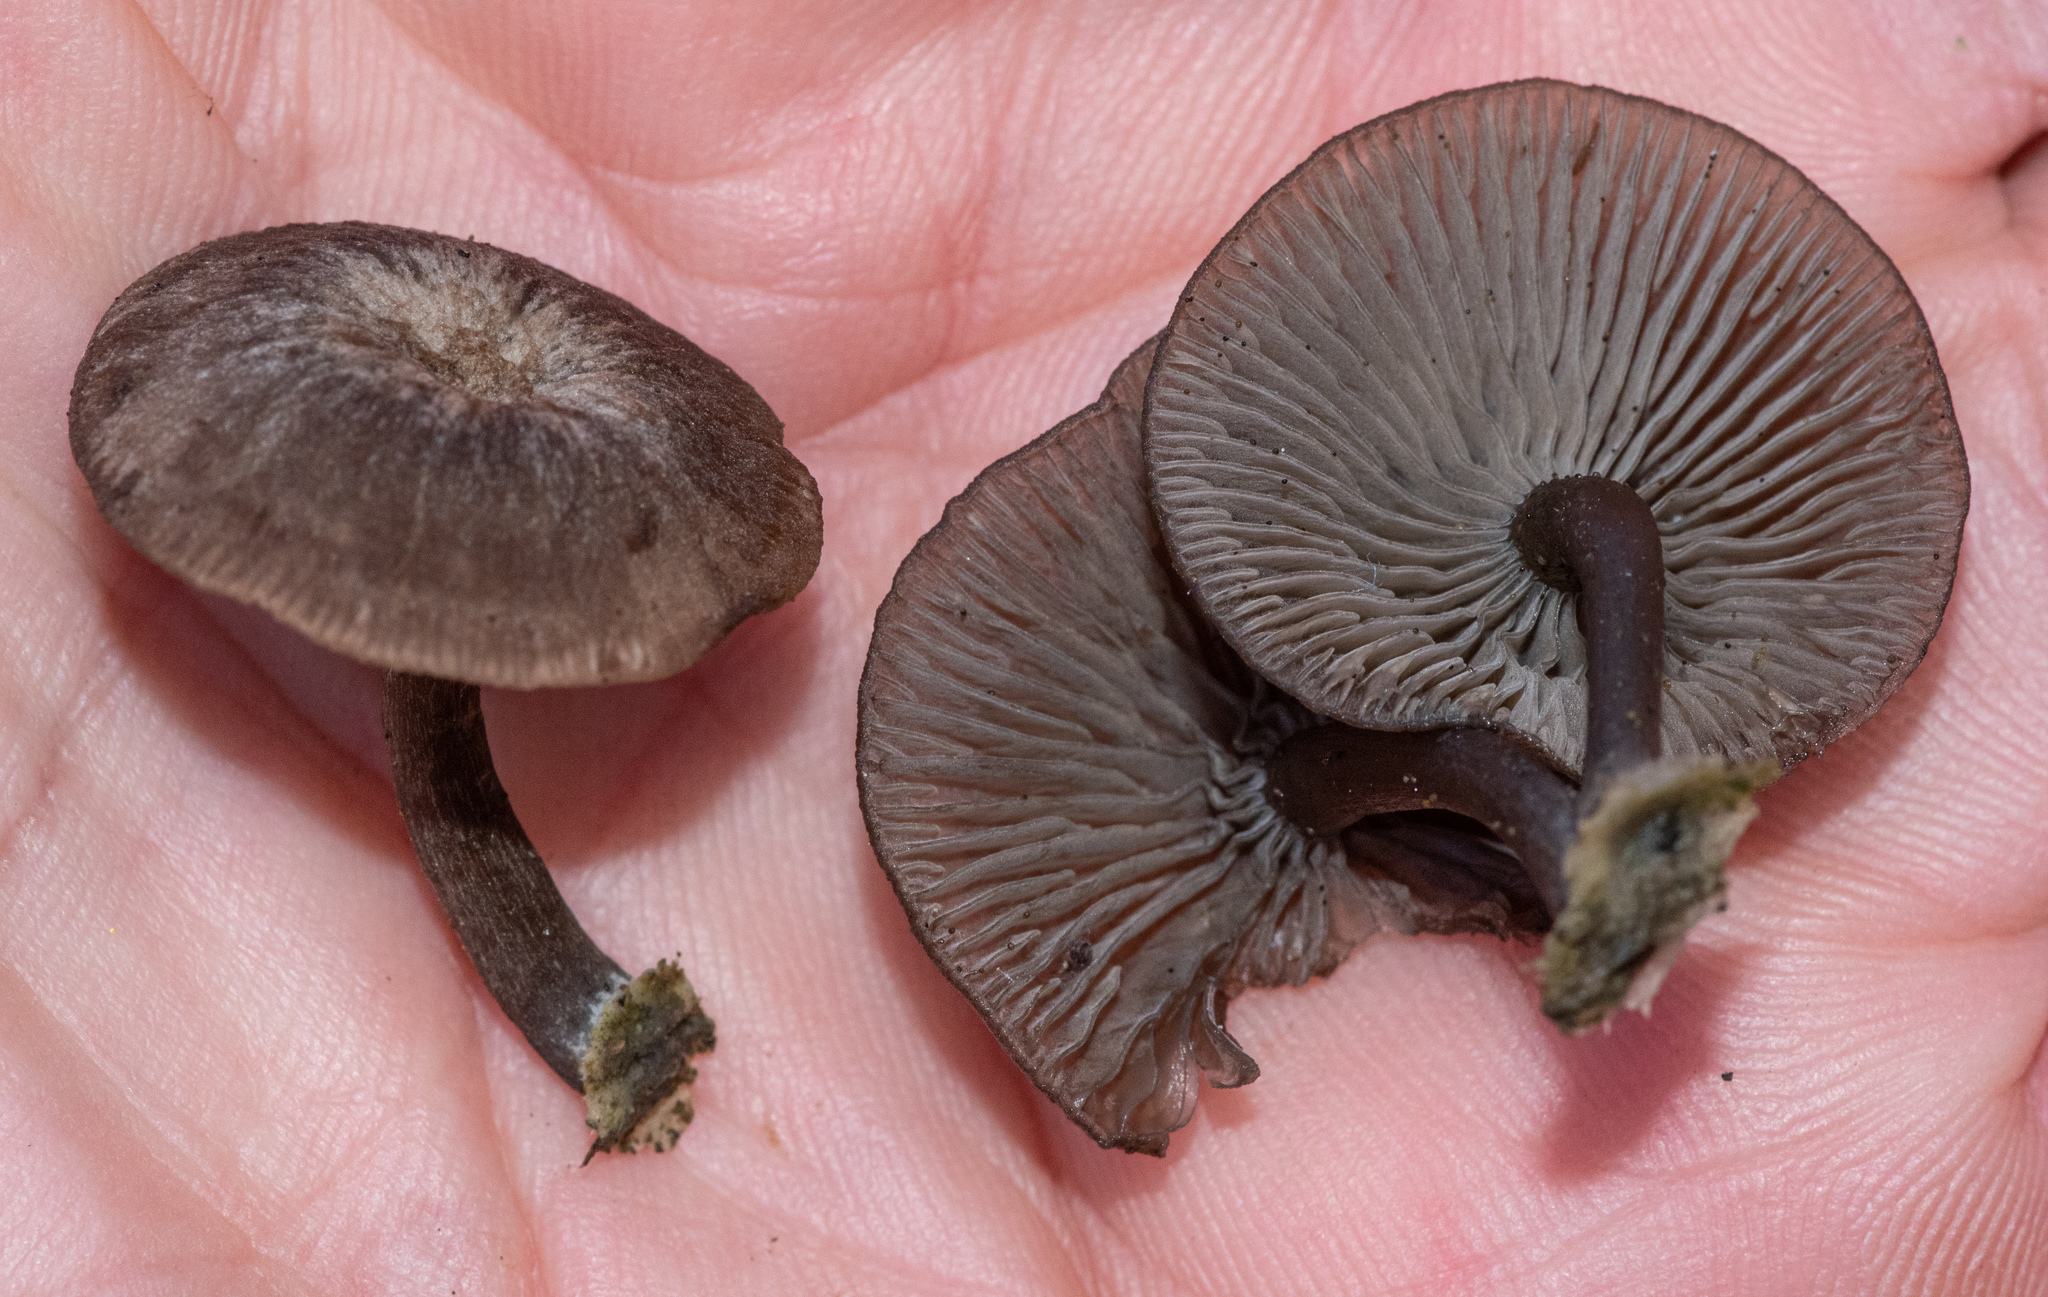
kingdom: Fungi
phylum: Basidiomycota
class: Agaricomycetes
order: Agaricales
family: Mycenaceae
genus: Hydropus
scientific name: Hydropus marginellus
